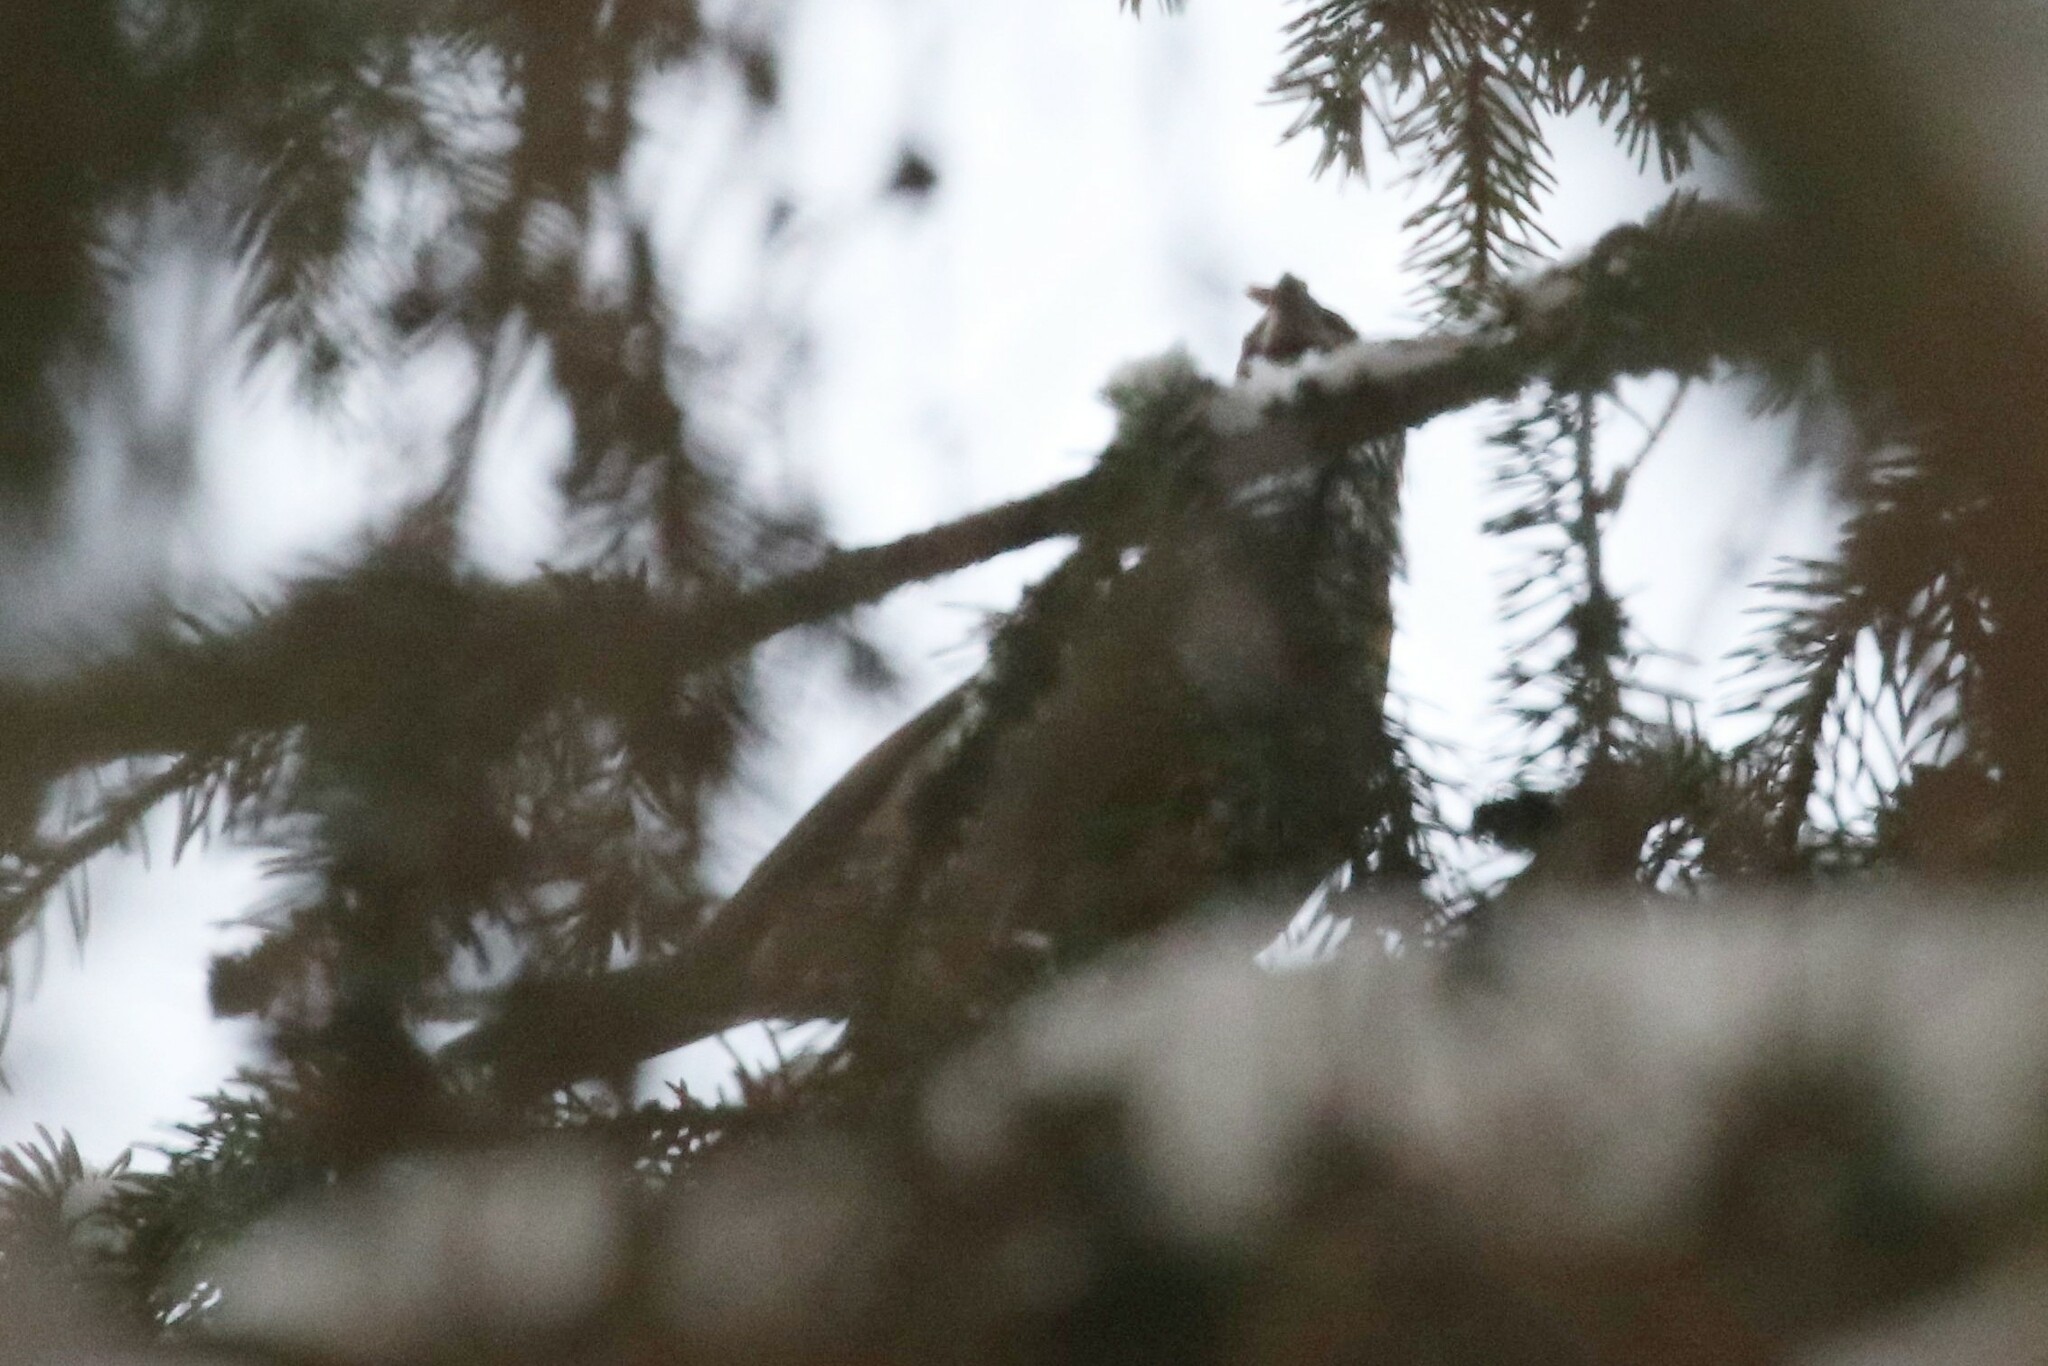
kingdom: Animalia
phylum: Chordata
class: Aves
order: Passeriformes
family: Fringillidae
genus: Pinicola
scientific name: Pinicola enucleator
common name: Pine grosbeak
